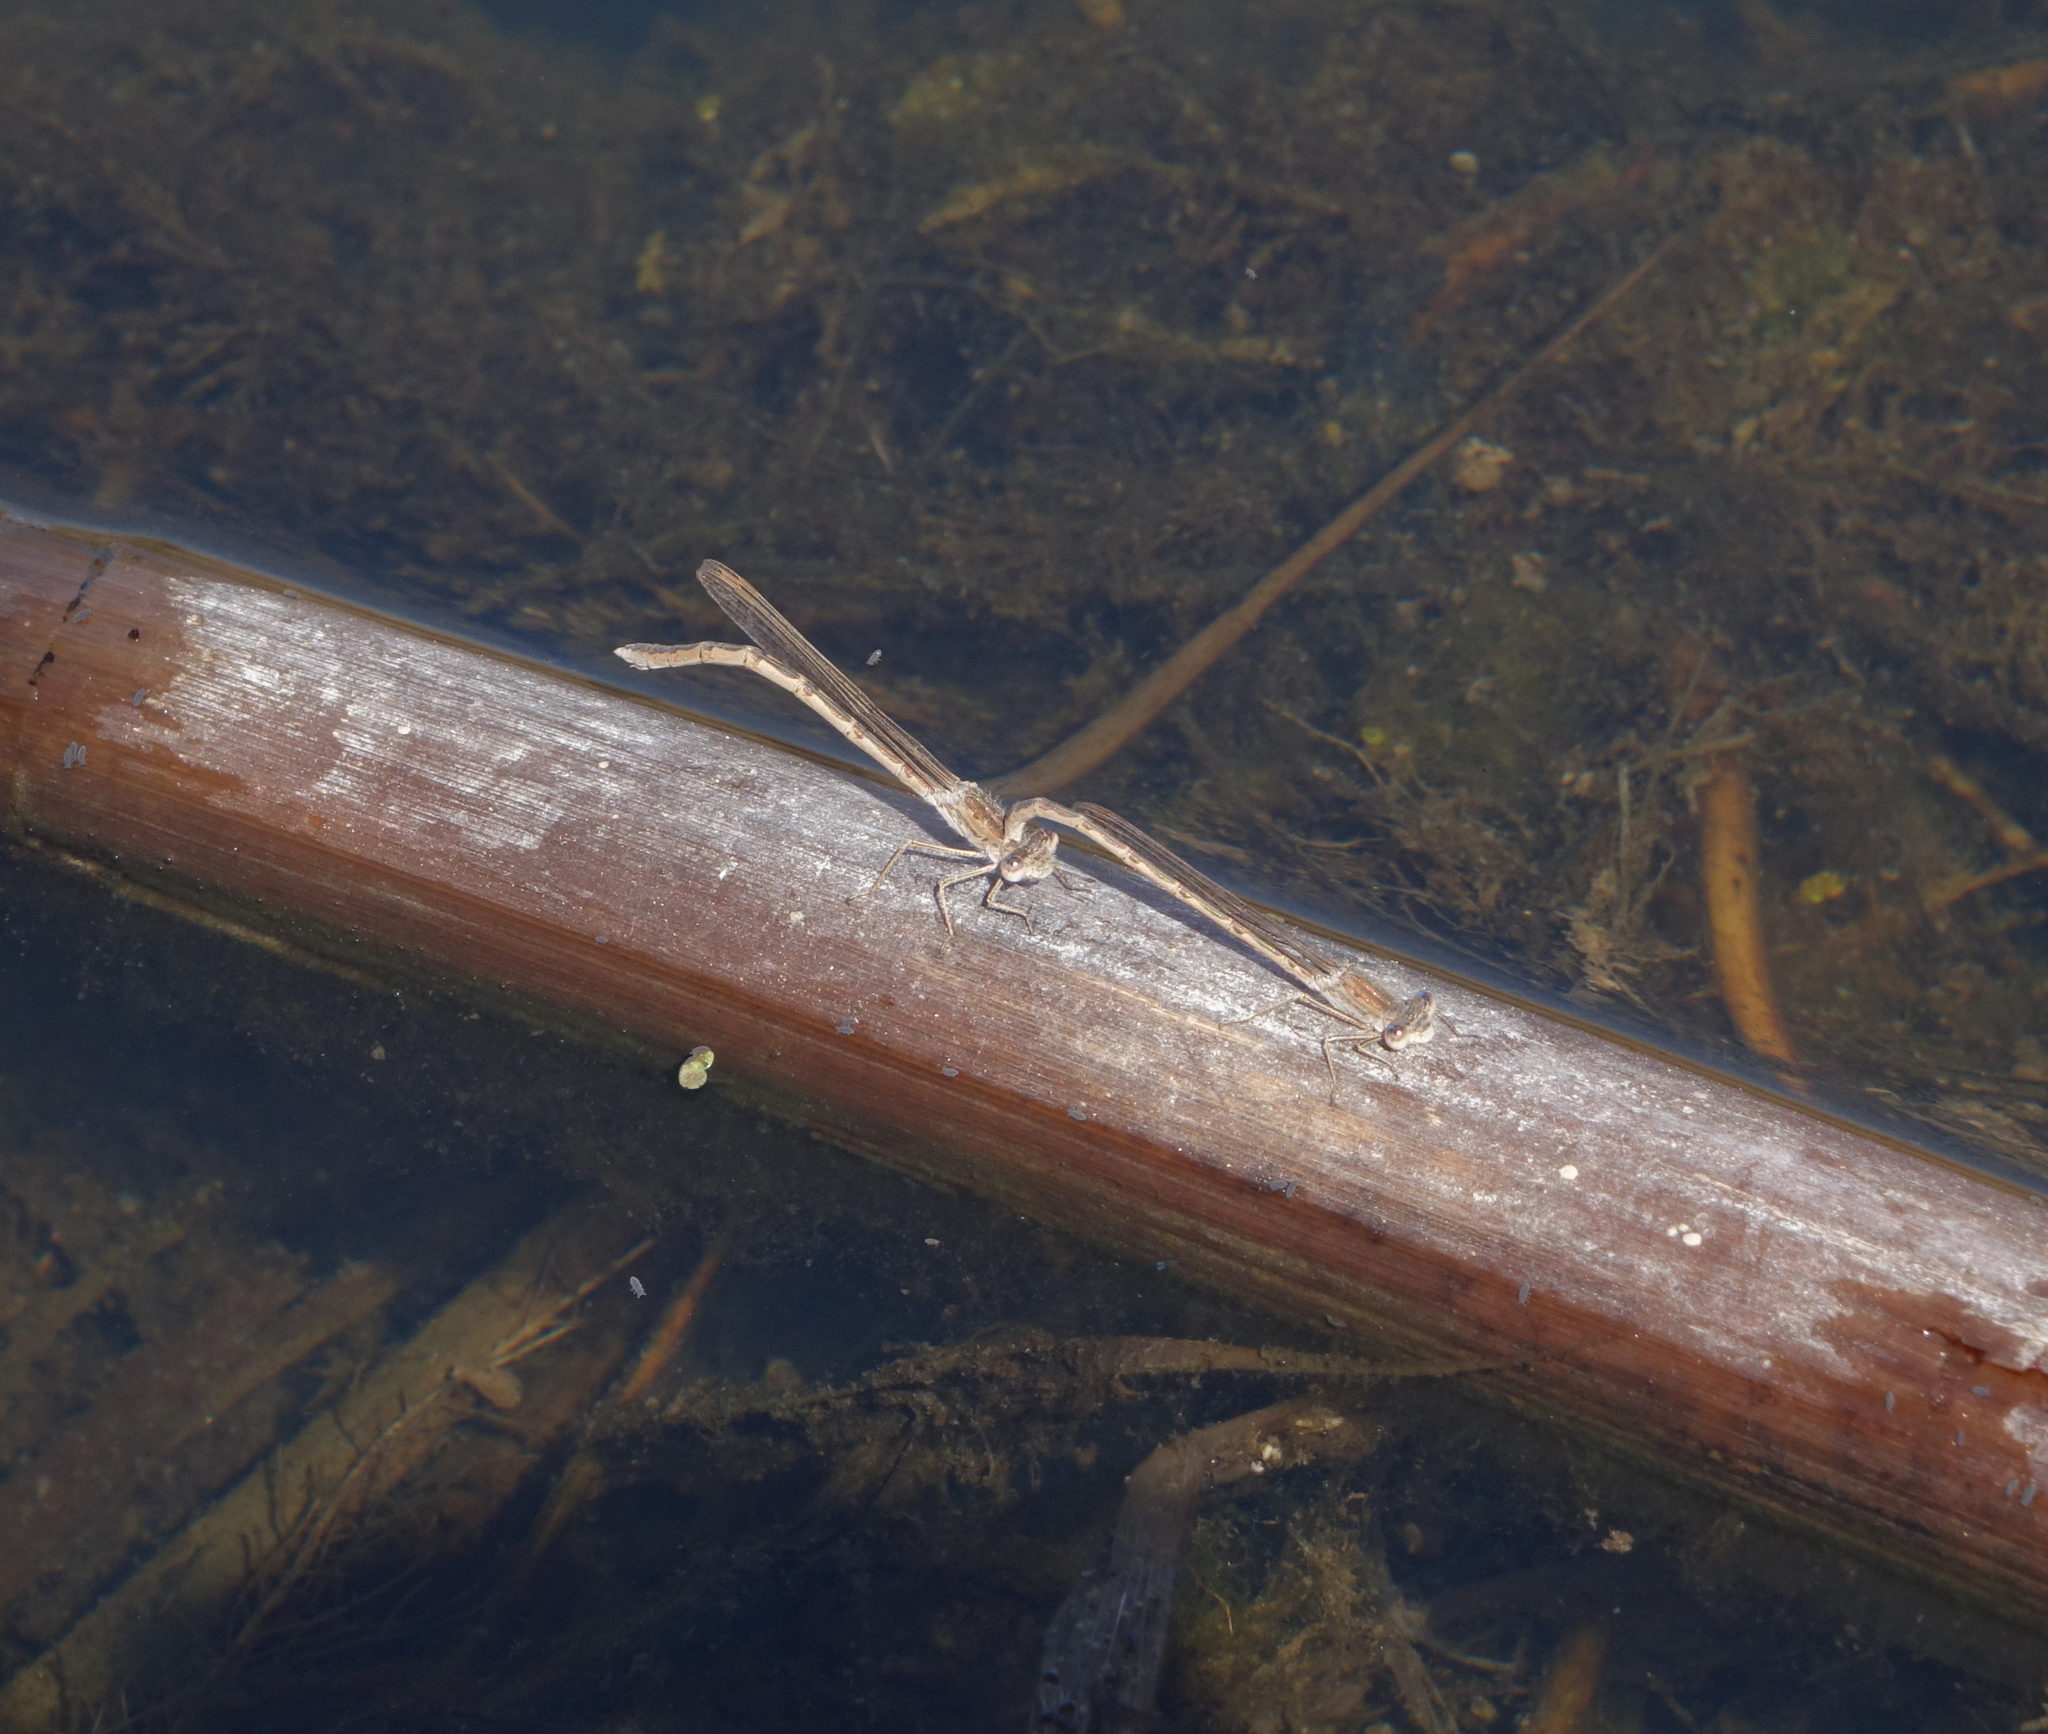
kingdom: Animalia
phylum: Arthropoda
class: Insecta
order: Odonata
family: Lestidae
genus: Sympecma
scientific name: Sympecma paedisca
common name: Siberian winter damsel
